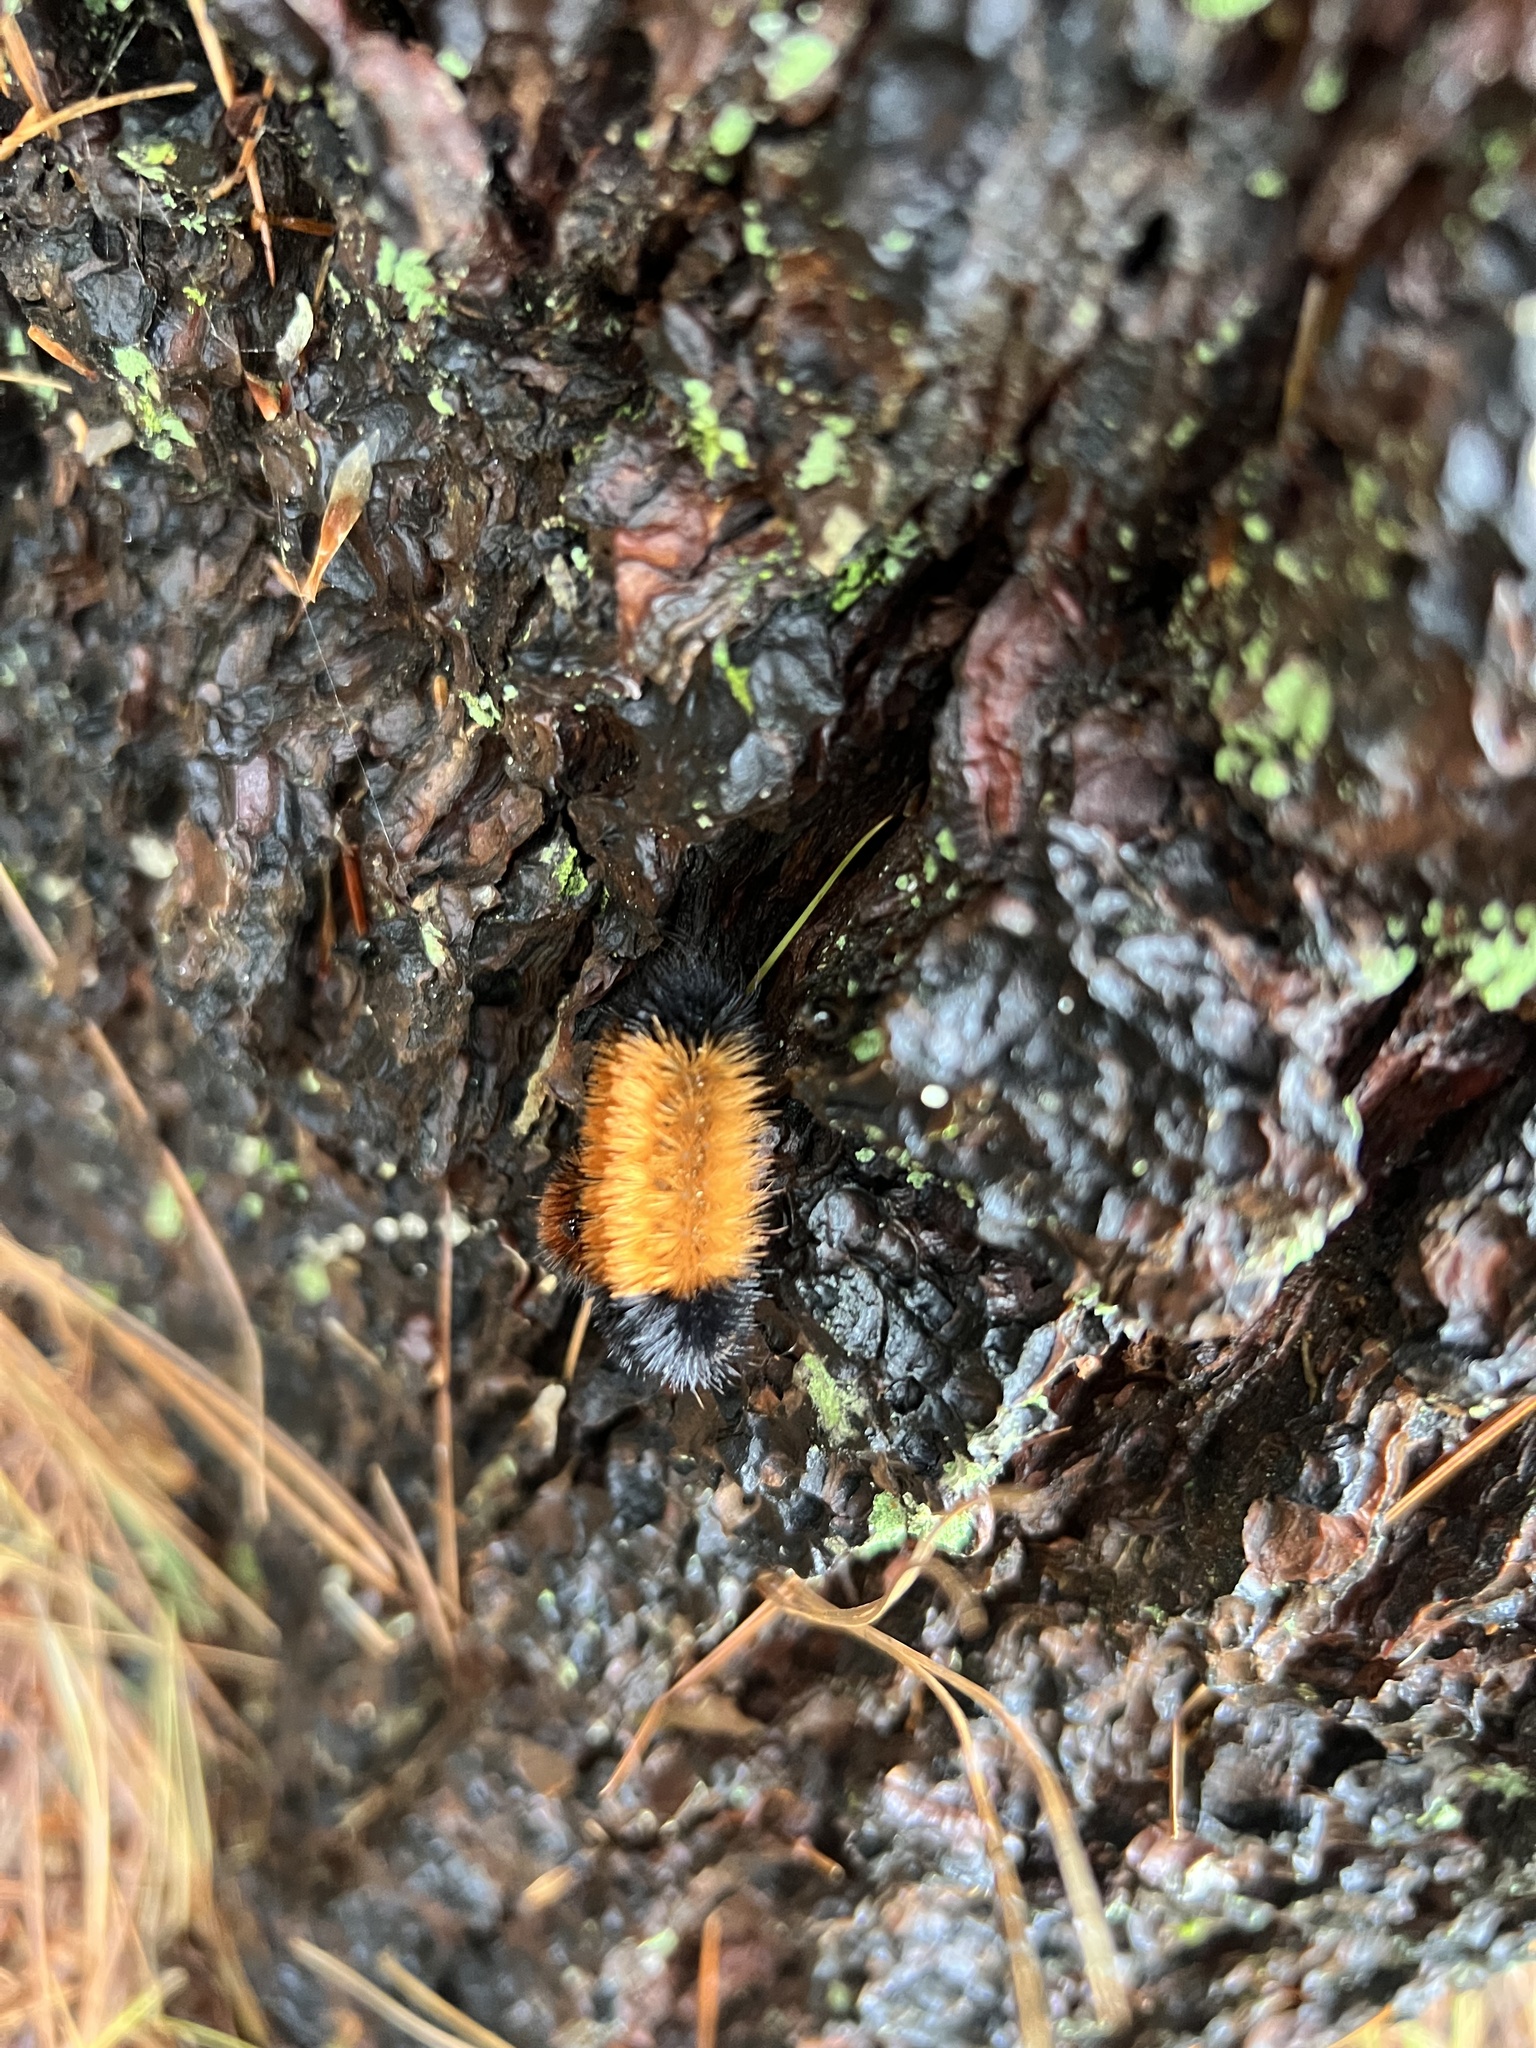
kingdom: Animalia
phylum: Arthropoda
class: Insecta
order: Lepidoptera
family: Erebidae
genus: Pyrrharctia
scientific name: Pyrrharctia isabella
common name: Isabella tiger moth
